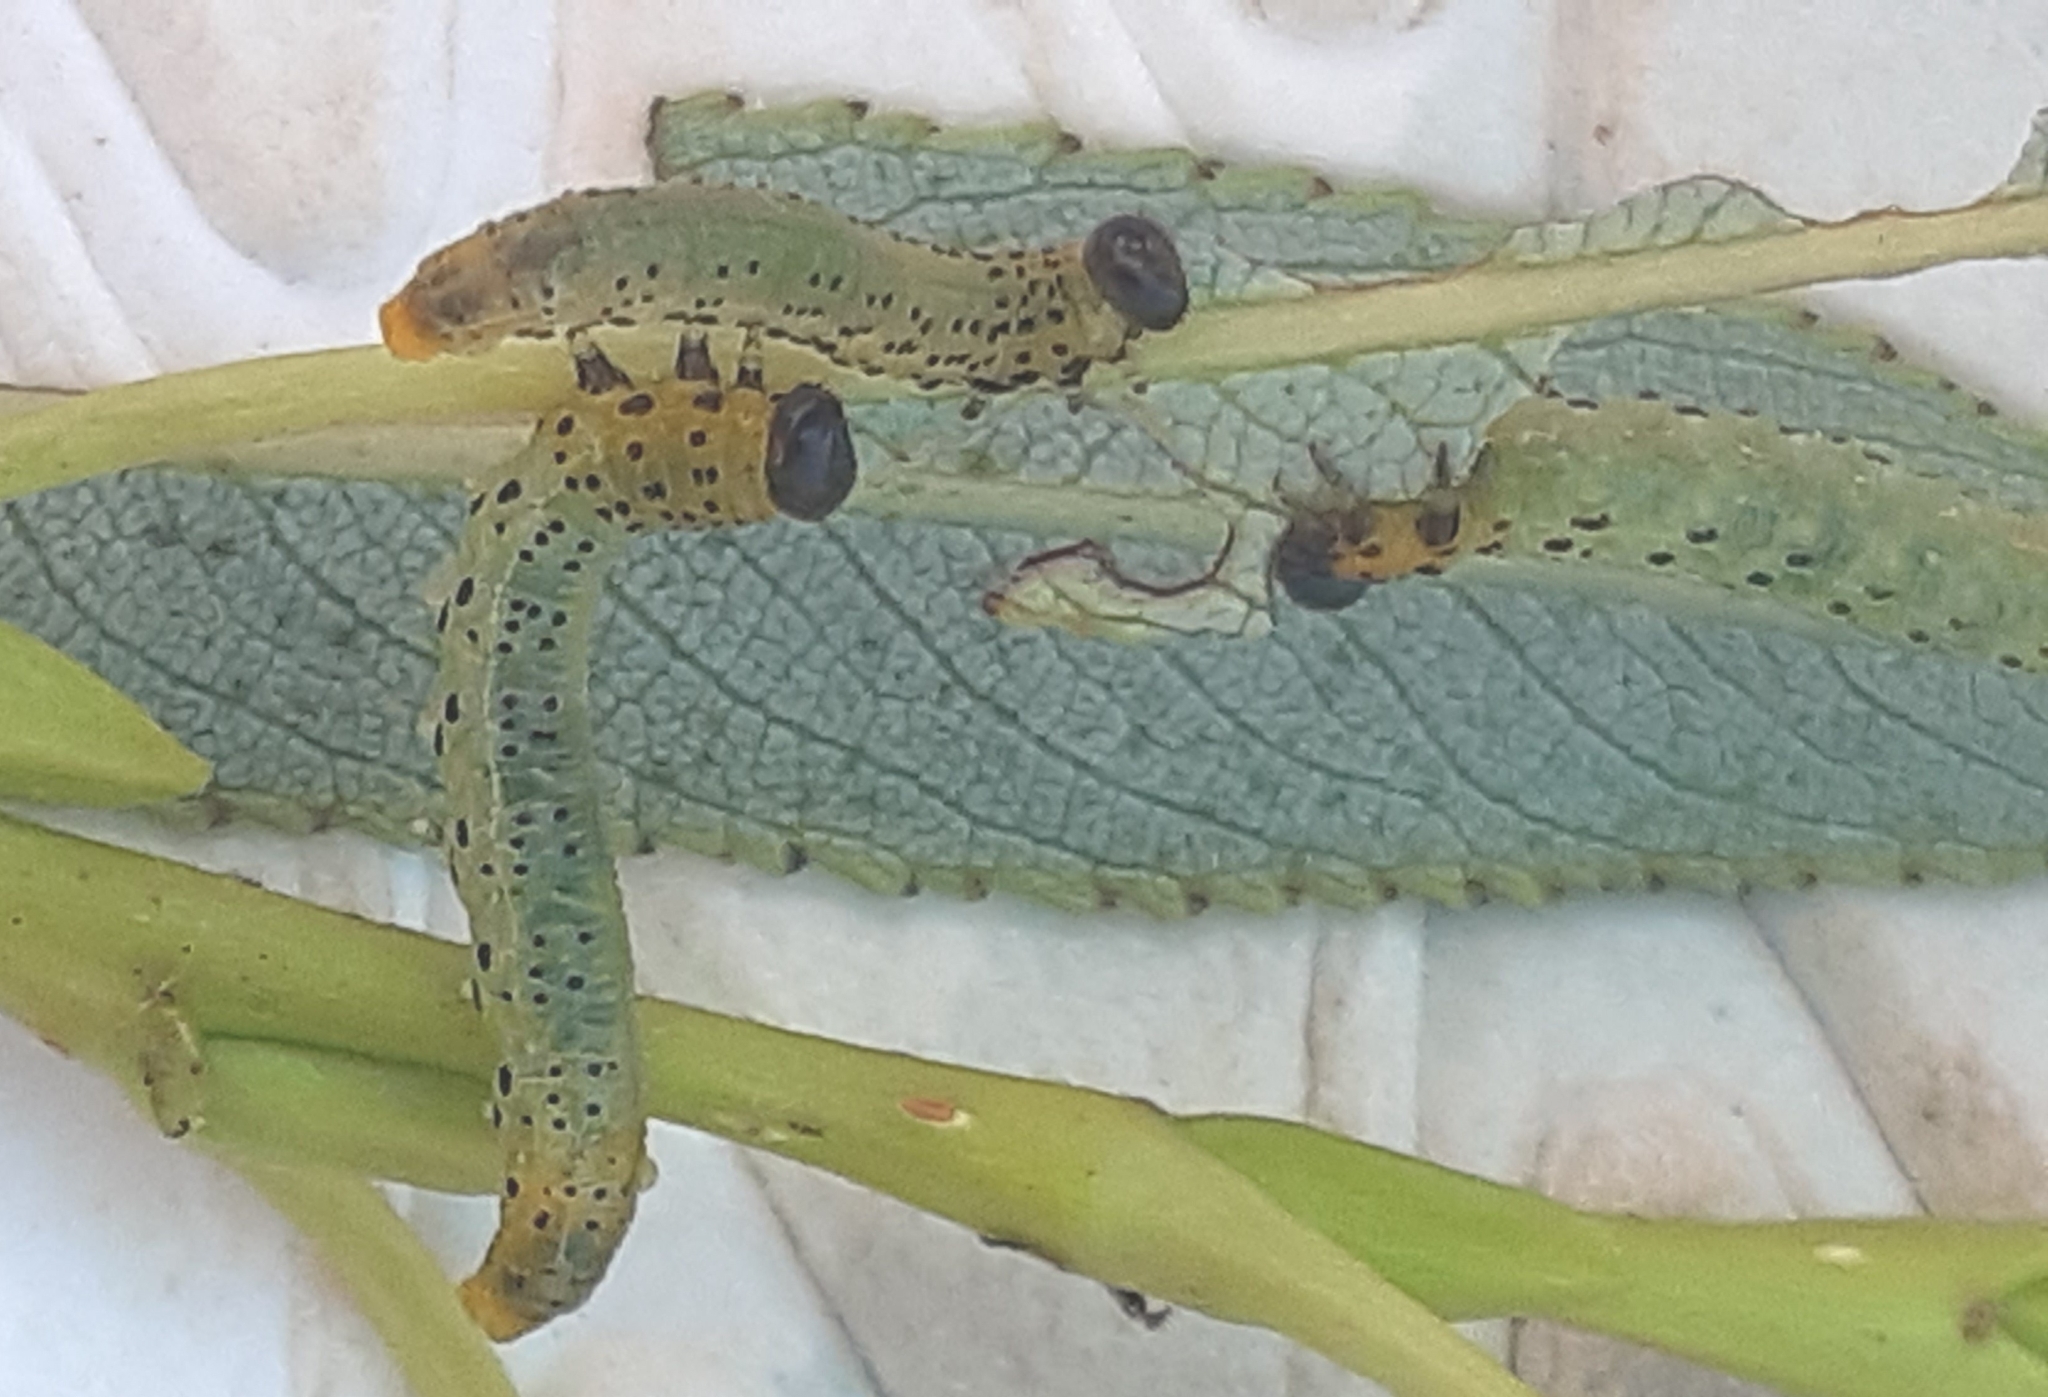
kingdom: Animalia
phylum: Arthropoda
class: Insecta
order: Hymenoptera
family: Tenthredinidae
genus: Pristiphora
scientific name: Pristiphora conjugata
